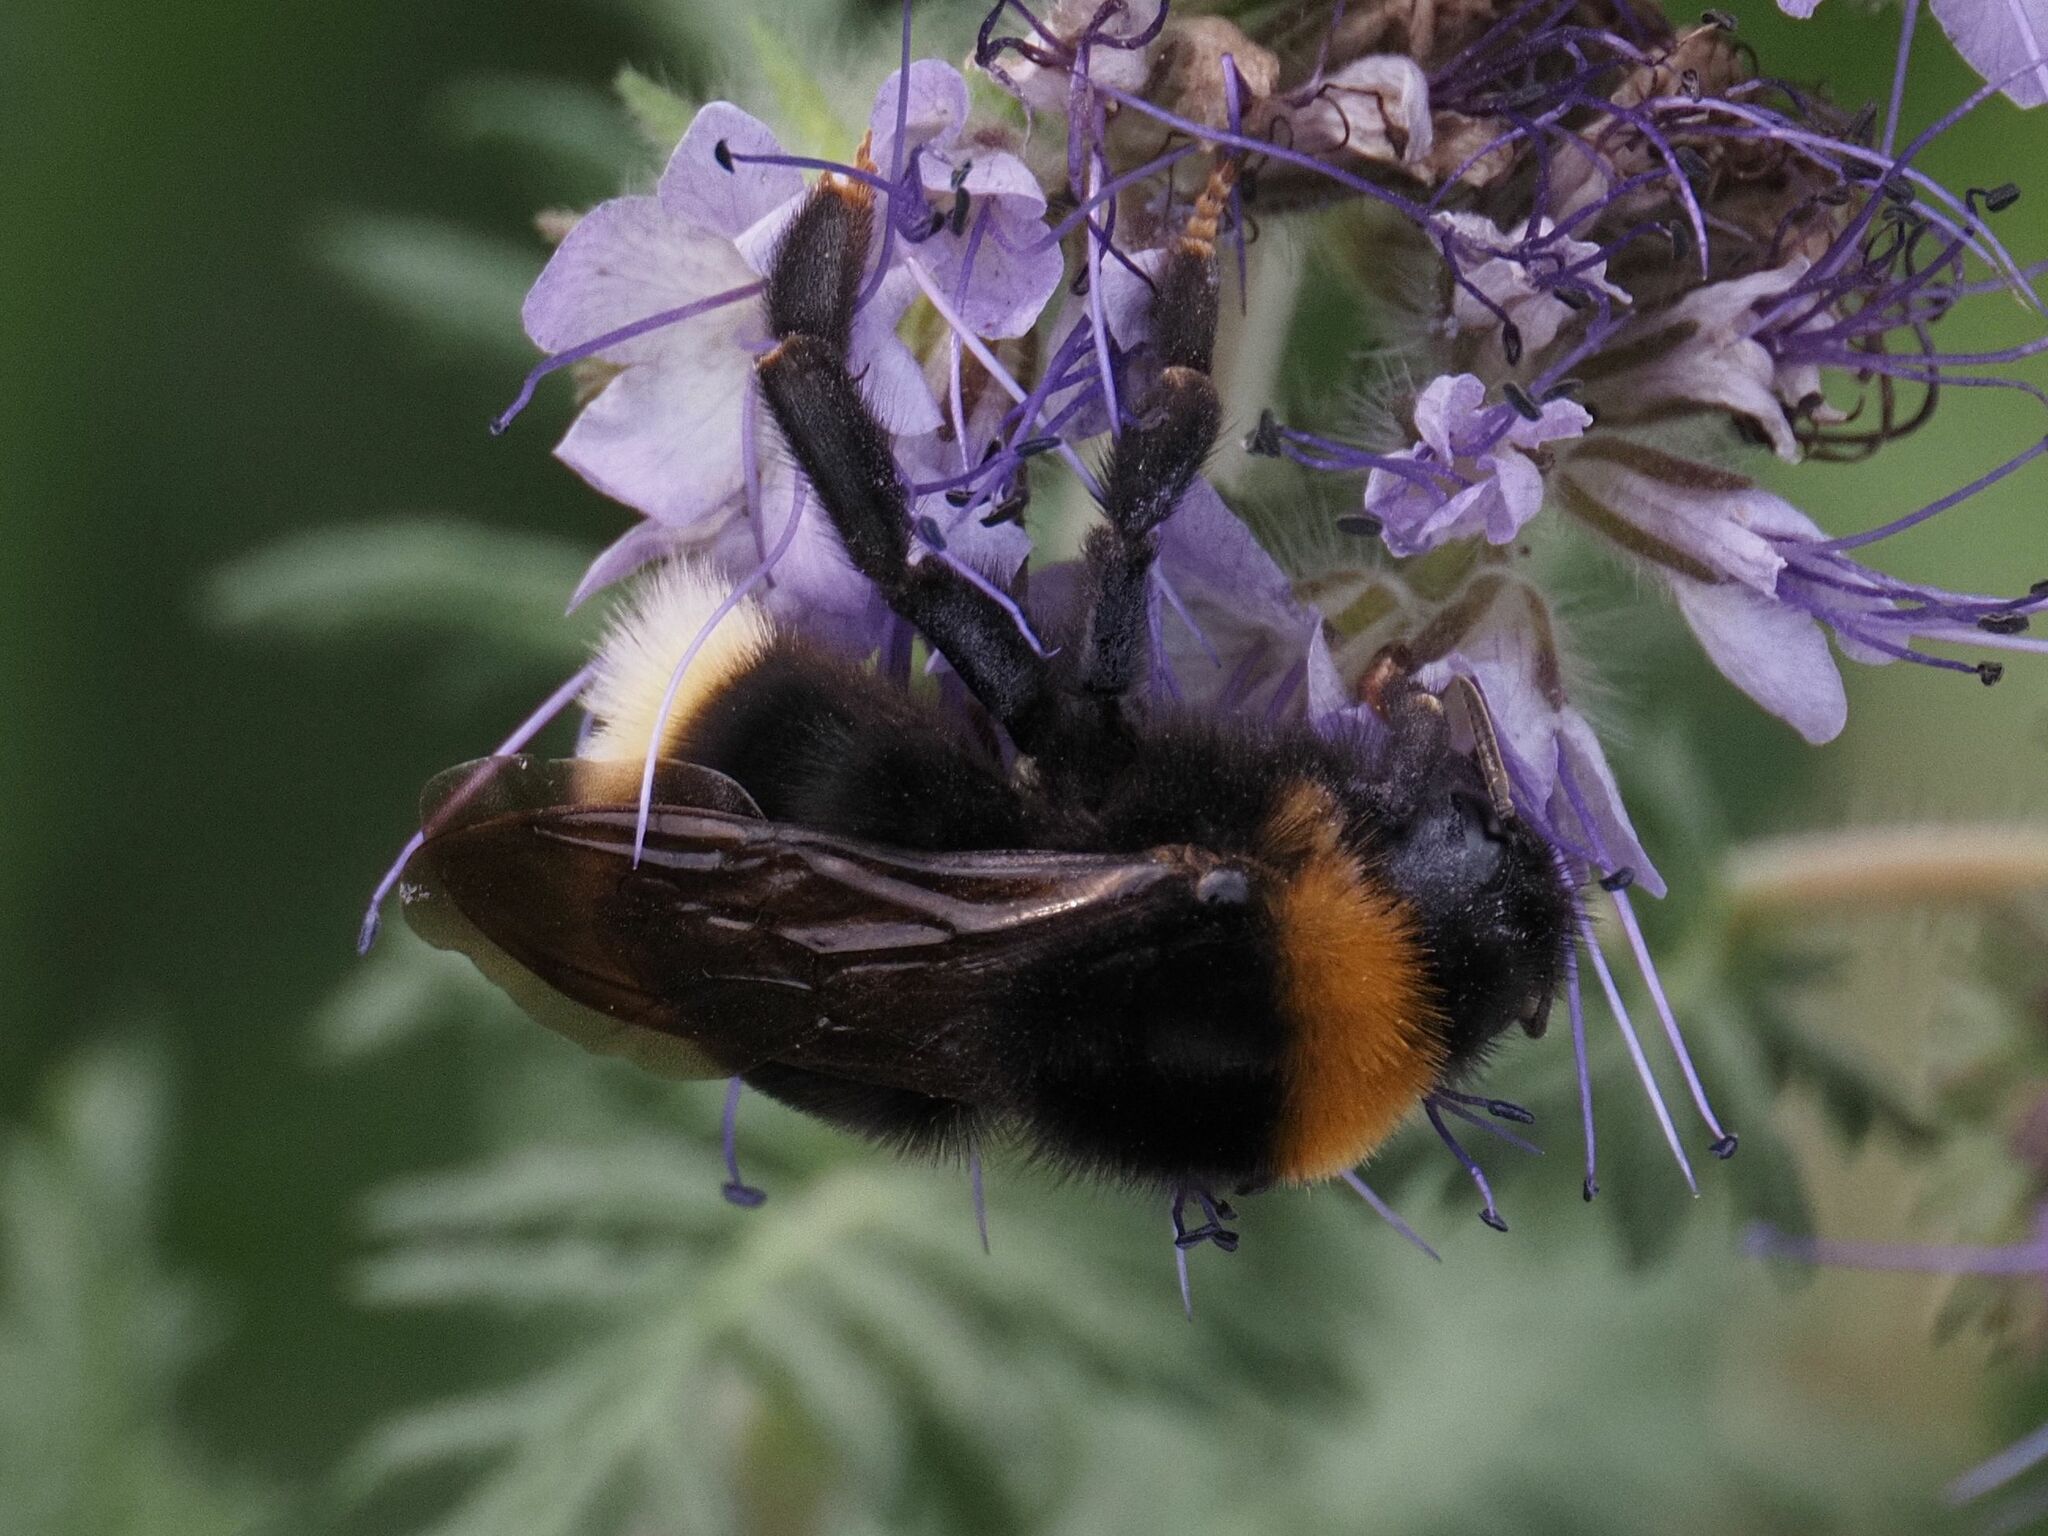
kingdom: Animalia
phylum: Arthropoda
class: Insecta
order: Hymenoptera
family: Apidae
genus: Bombus
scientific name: Bombus vestalis
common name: Vestal cuckoo bee
